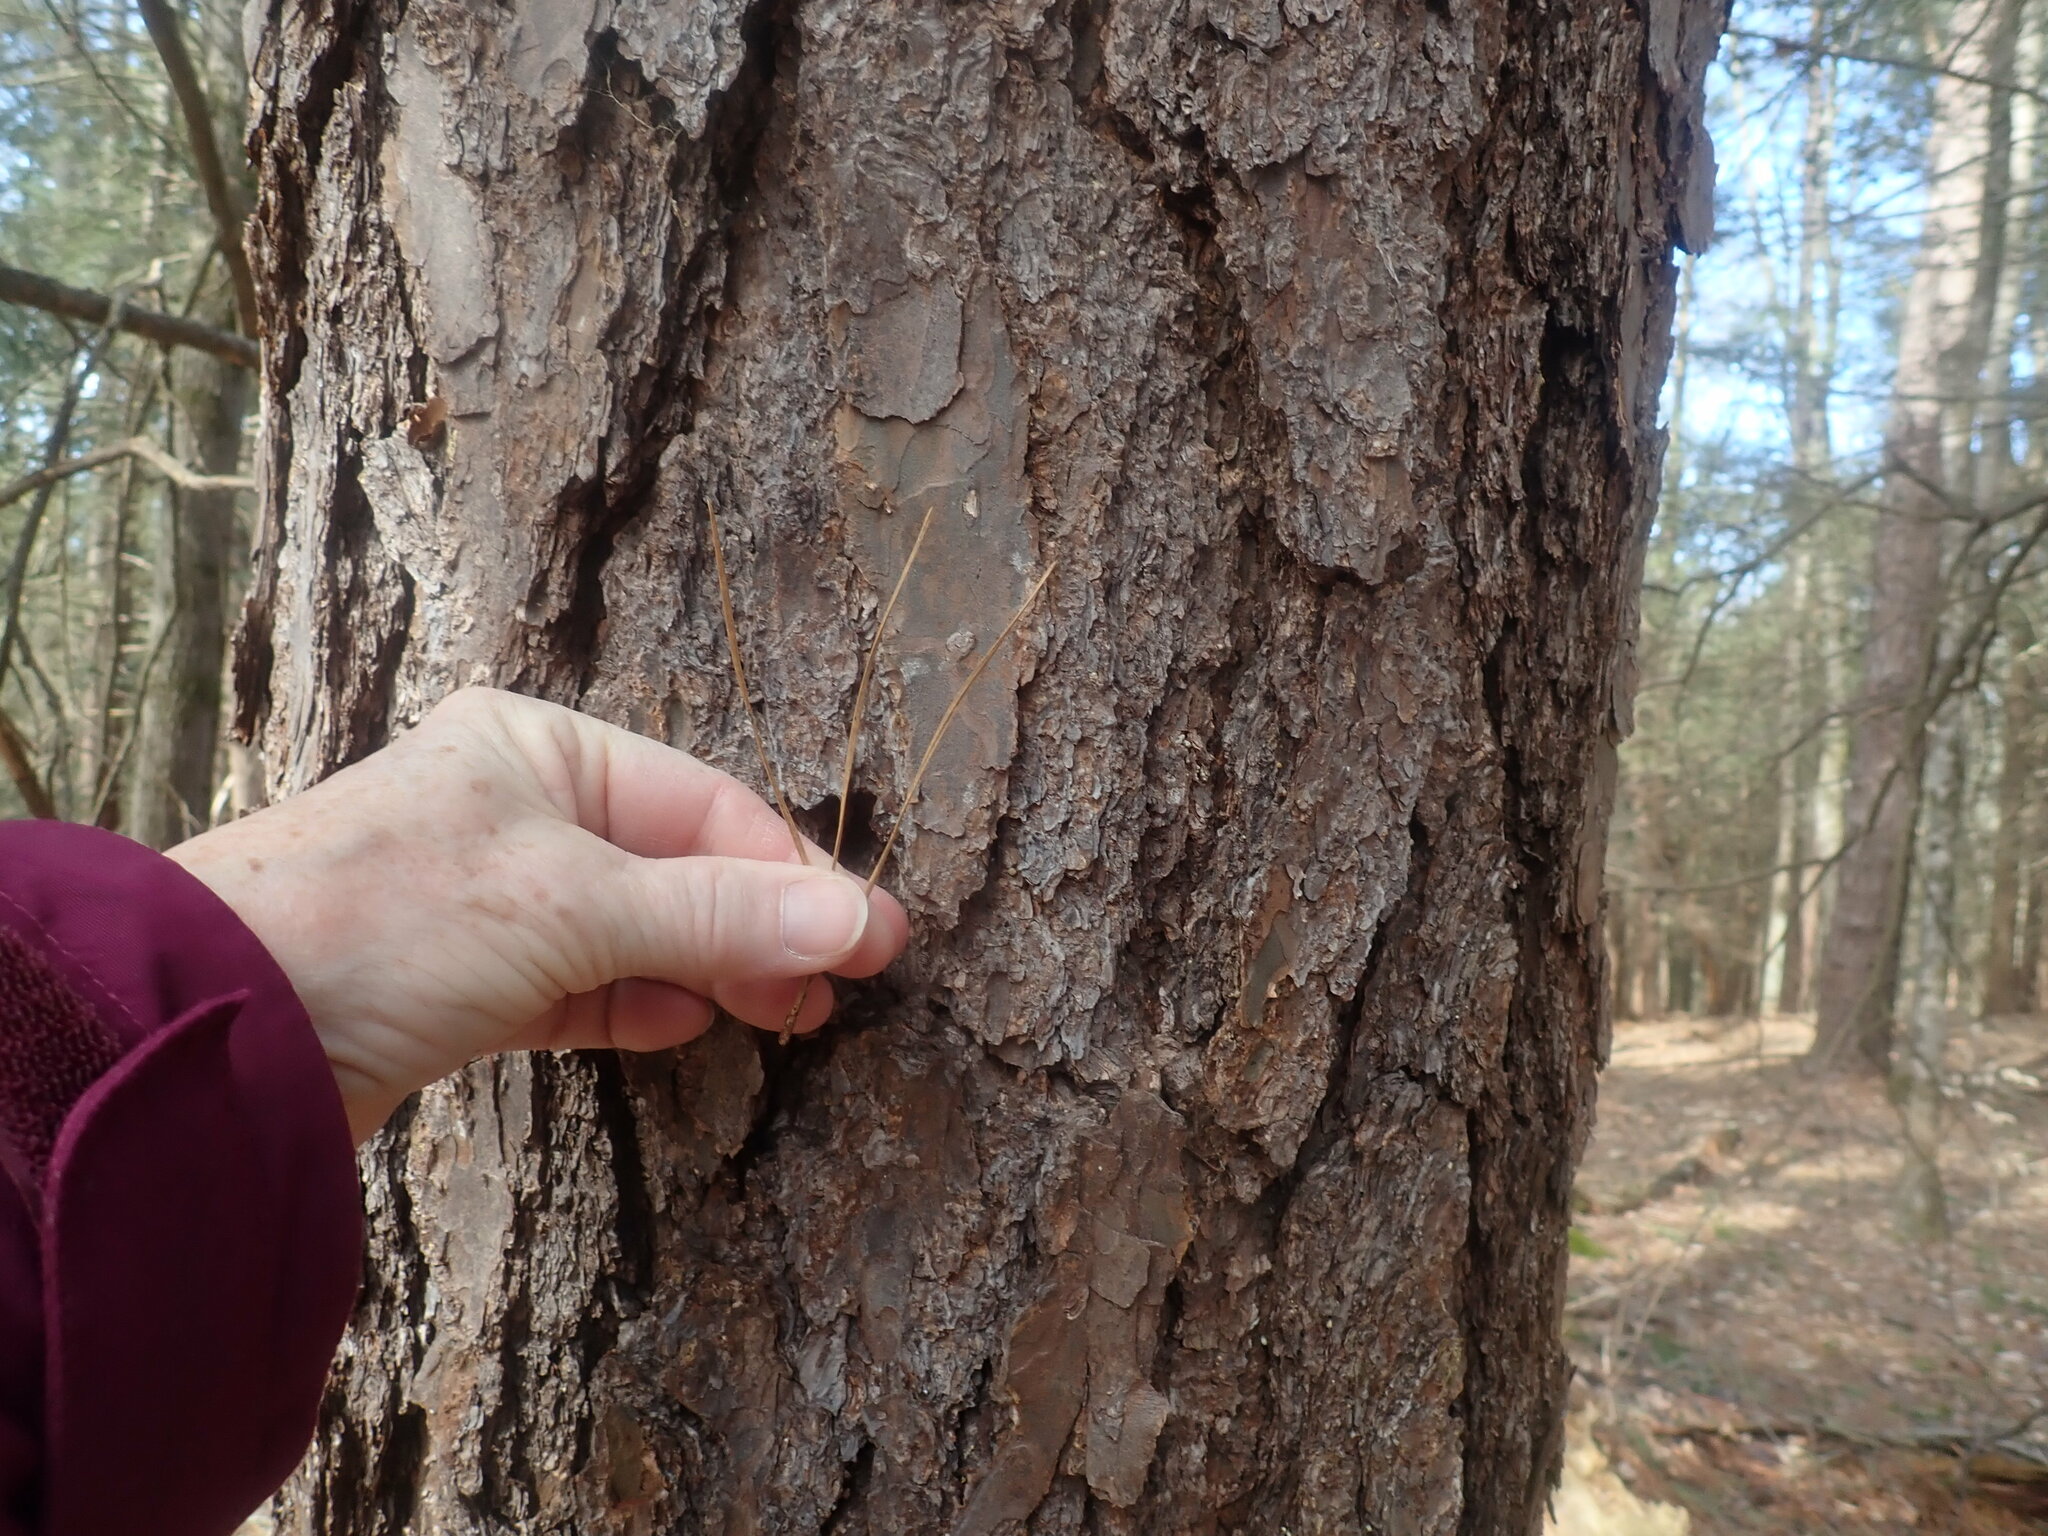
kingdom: Plantae
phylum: Tracheophyta
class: Pinopsida
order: Pinales
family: Pinaceae
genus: Pinus
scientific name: Pinus rigida
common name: Pitch pine
